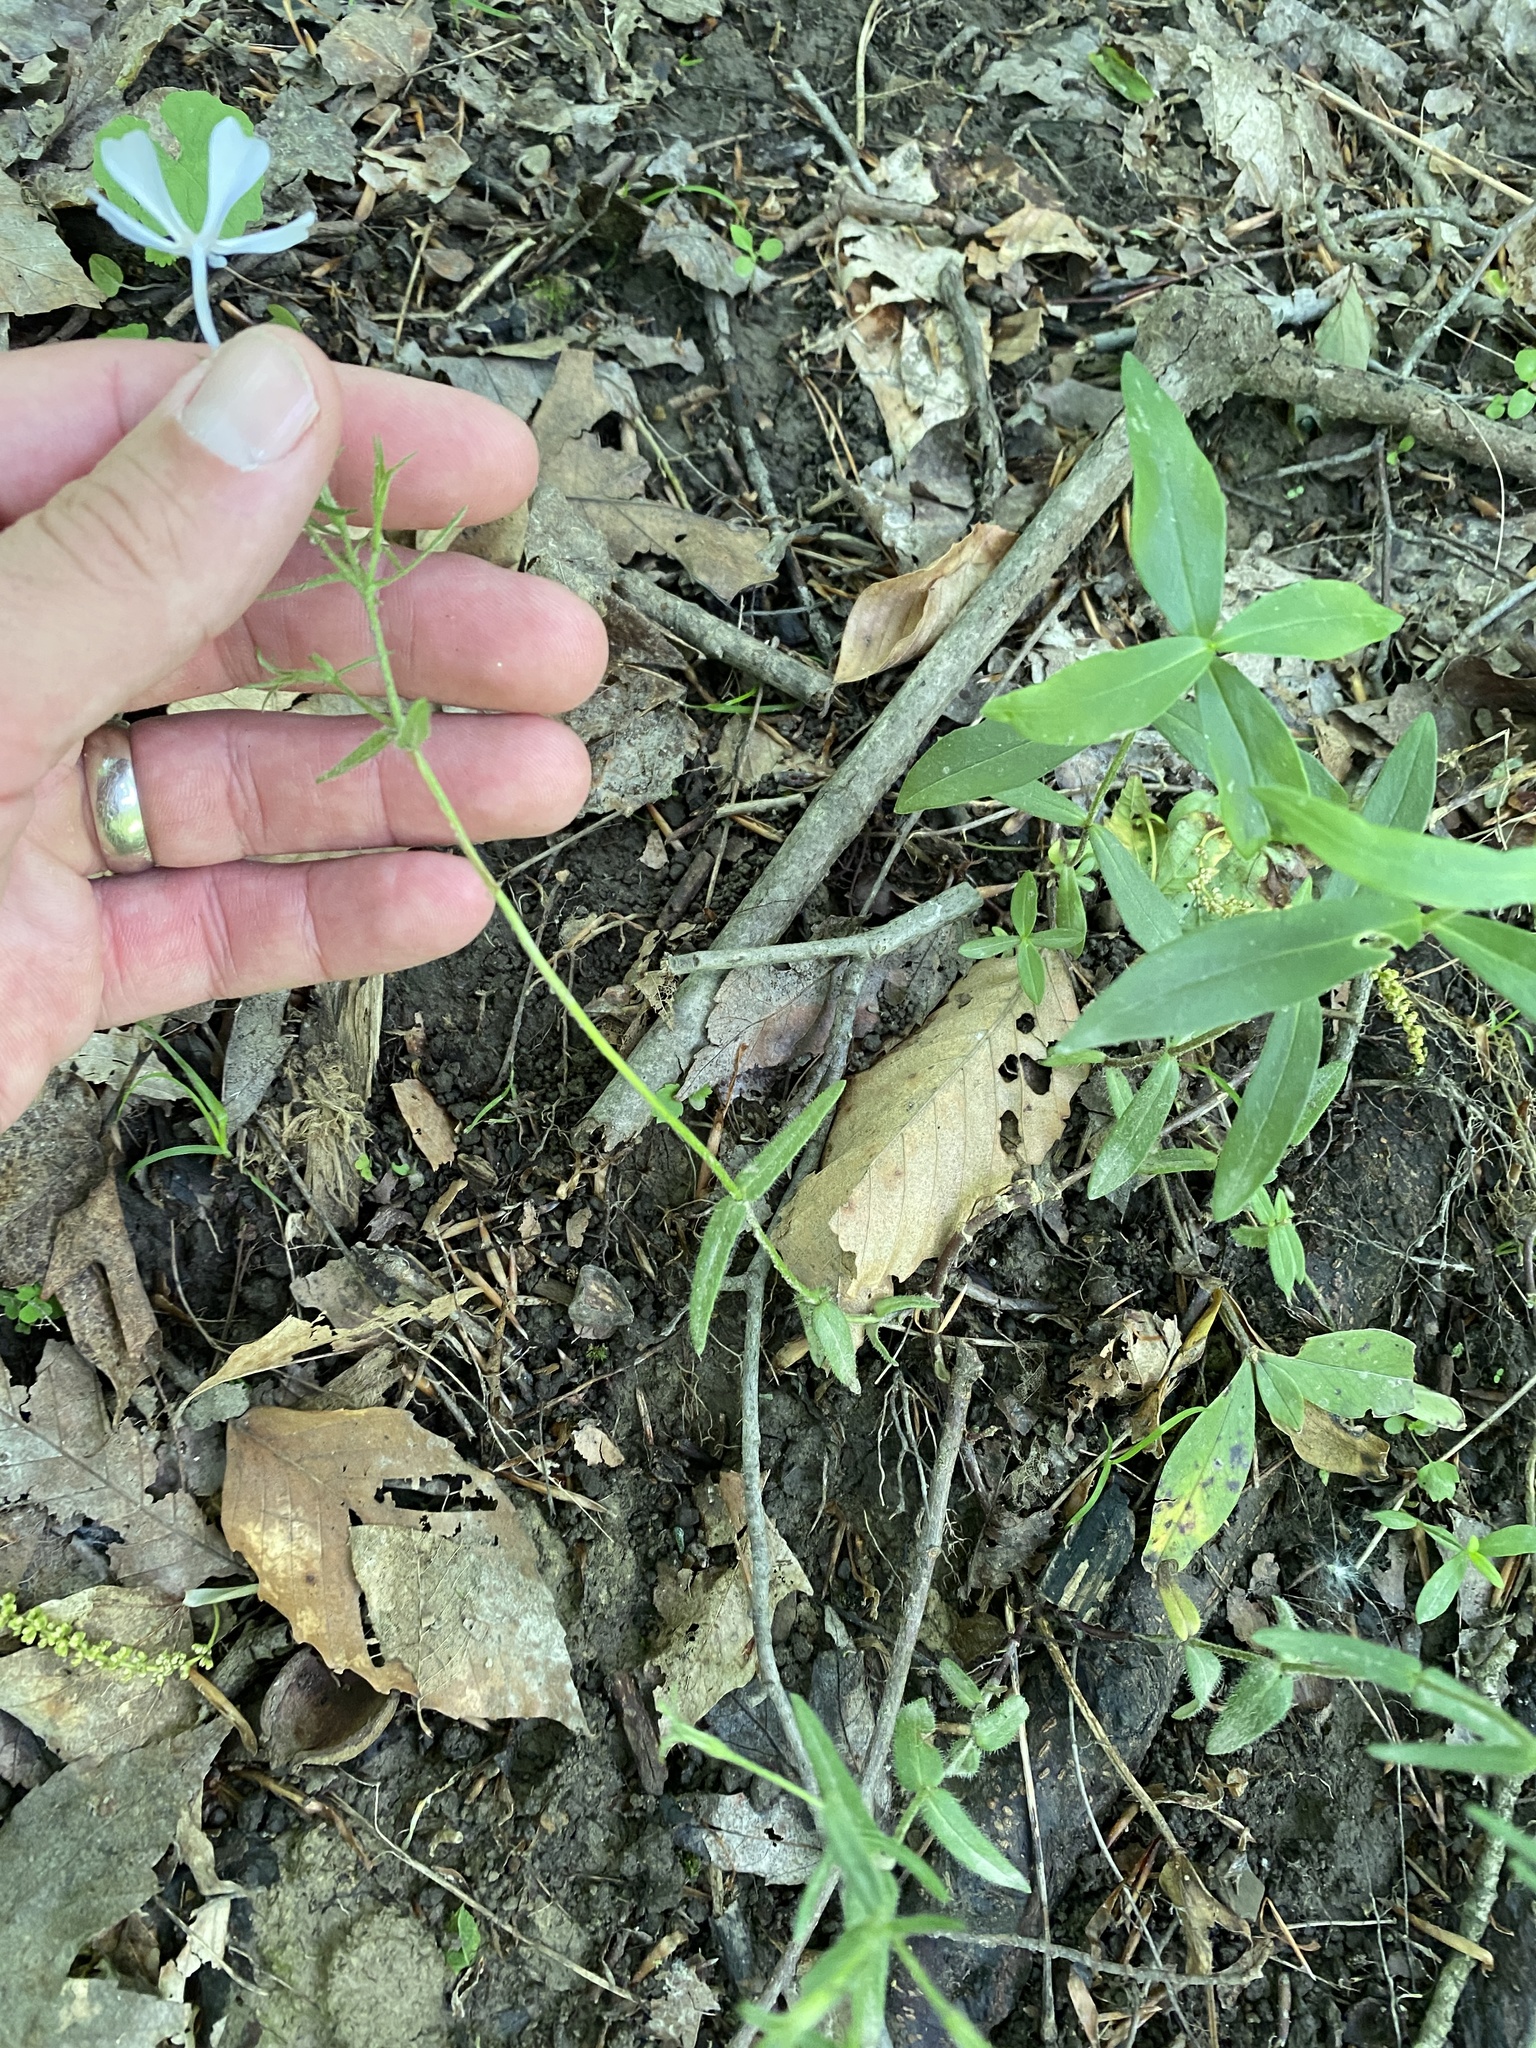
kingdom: Plantae
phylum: Tracheophyta
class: Magnoliopsida
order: Ericales
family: Polemoniaceae
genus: Phlox
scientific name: Phlox divaricata
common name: Blue phlox
